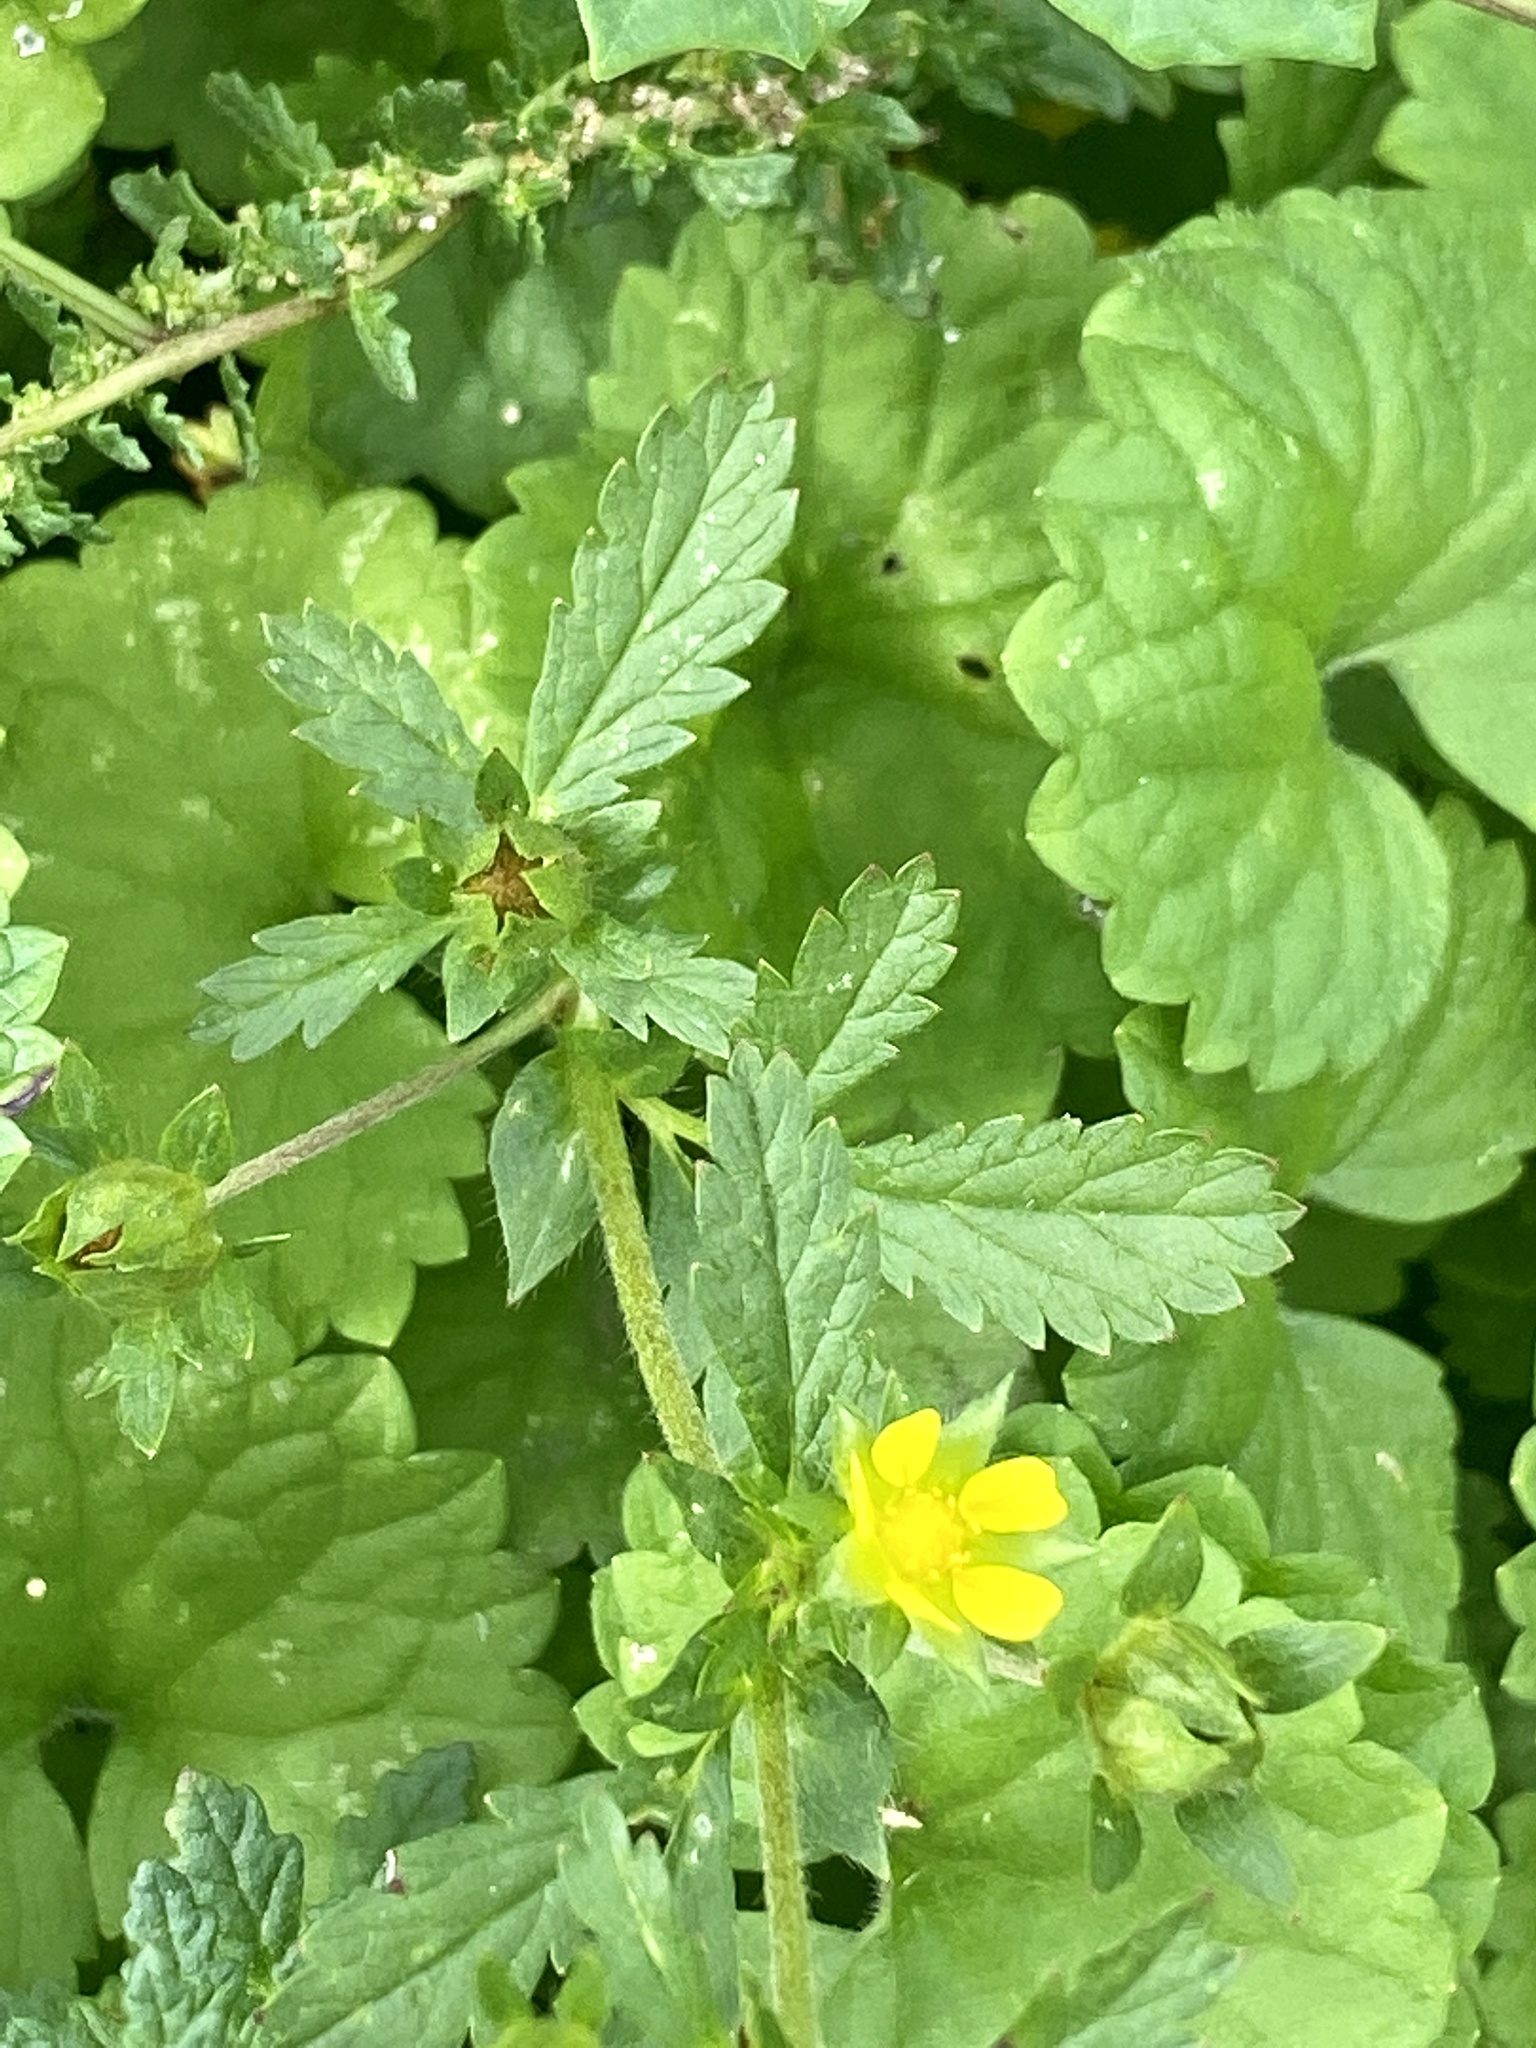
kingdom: Plantae
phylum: Tracheophyta
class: Magnoliopsida
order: Rosales
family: Rosaceae
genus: Potentilla
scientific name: Potentilla norvegica
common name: Ternate-leaved cinquefoil
